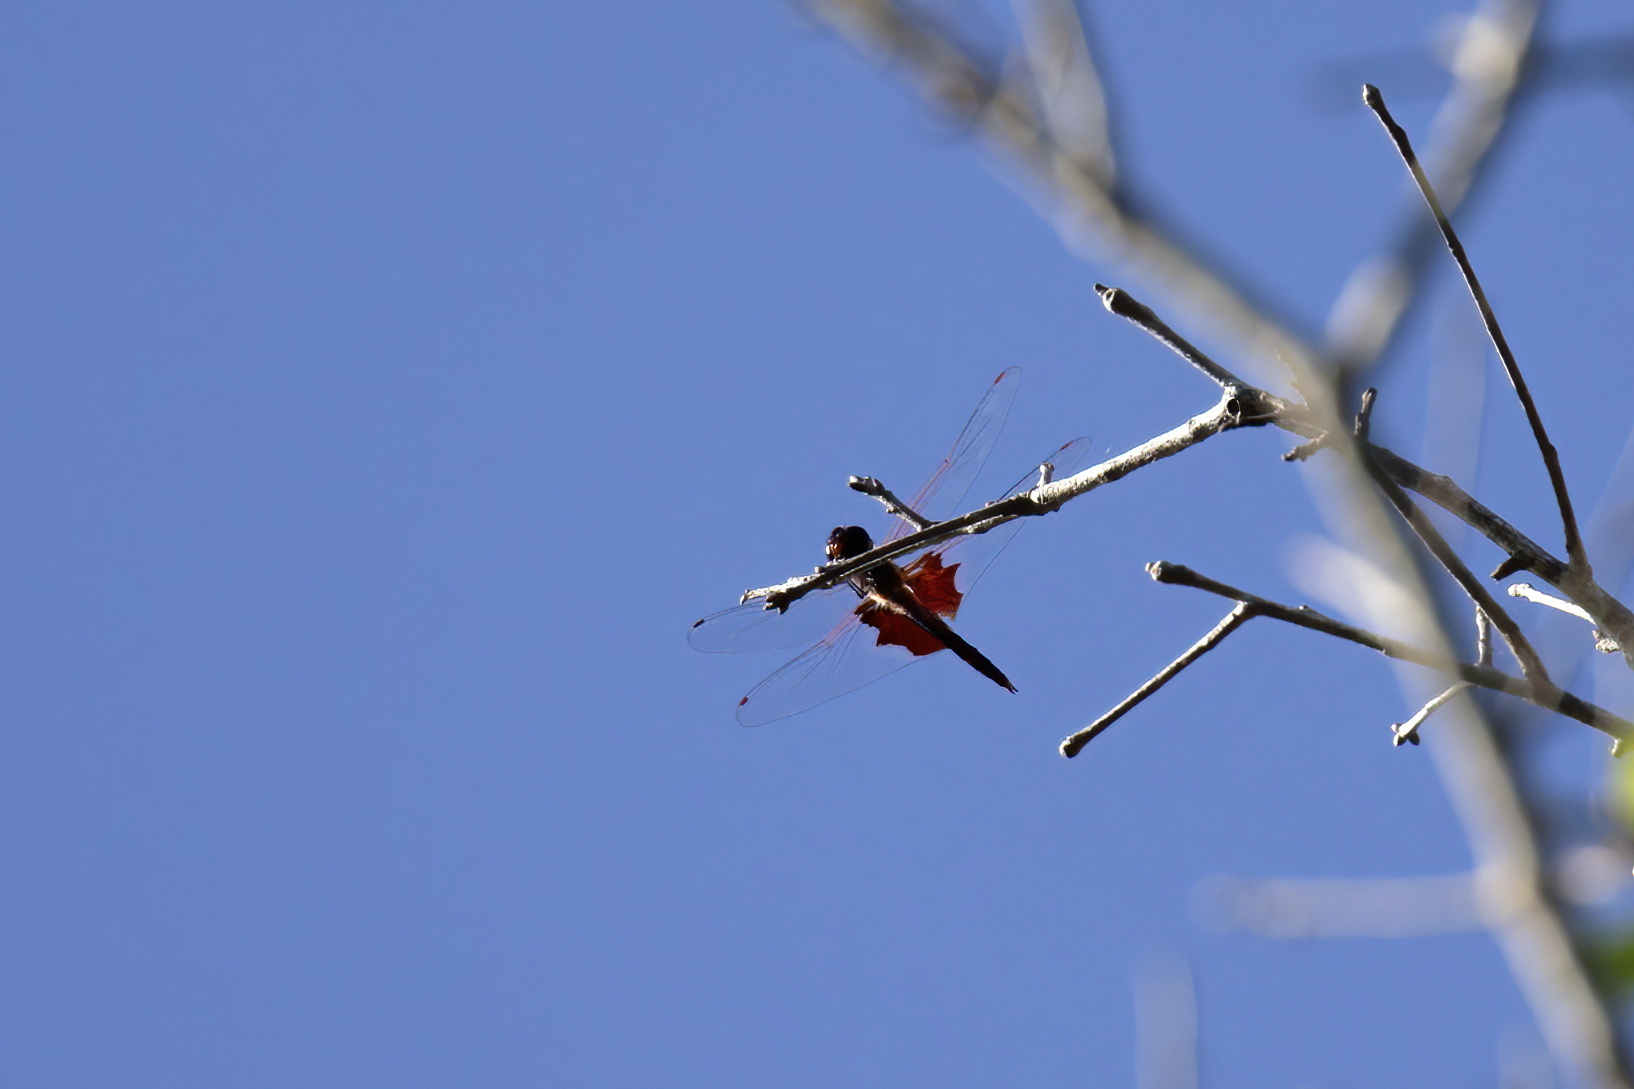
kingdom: Animalia
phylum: Arthropoda
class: Insecta
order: Odonata
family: Libellulidae
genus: Tramea
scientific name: Tramea carolina
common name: Carolina saddlebags
